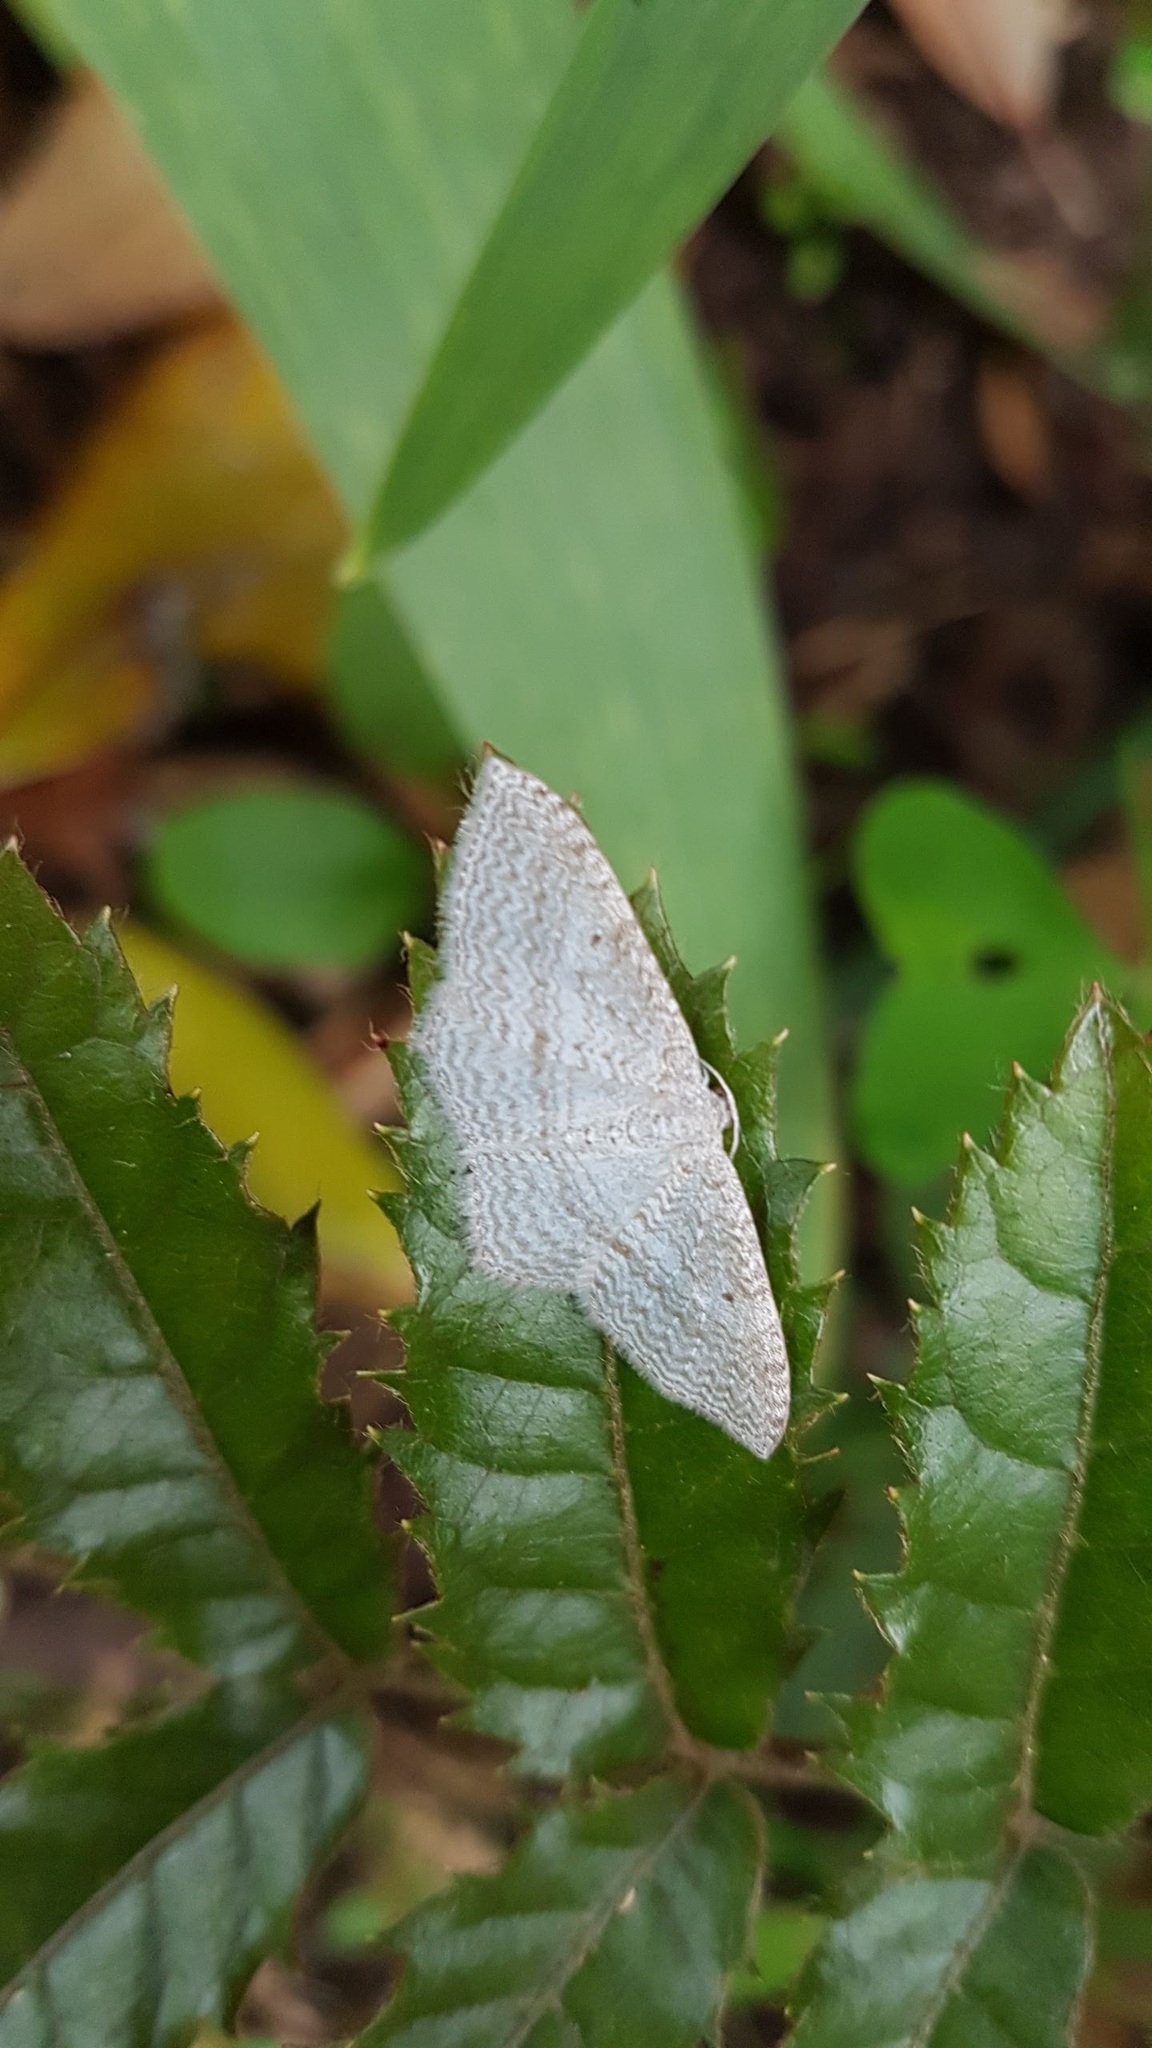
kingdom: Animalia
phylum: Arthropoda
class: Insecta
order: Lepidoptera
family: Geometridae
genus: Poecilasthena
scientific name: Poecilasthena pulchraria
